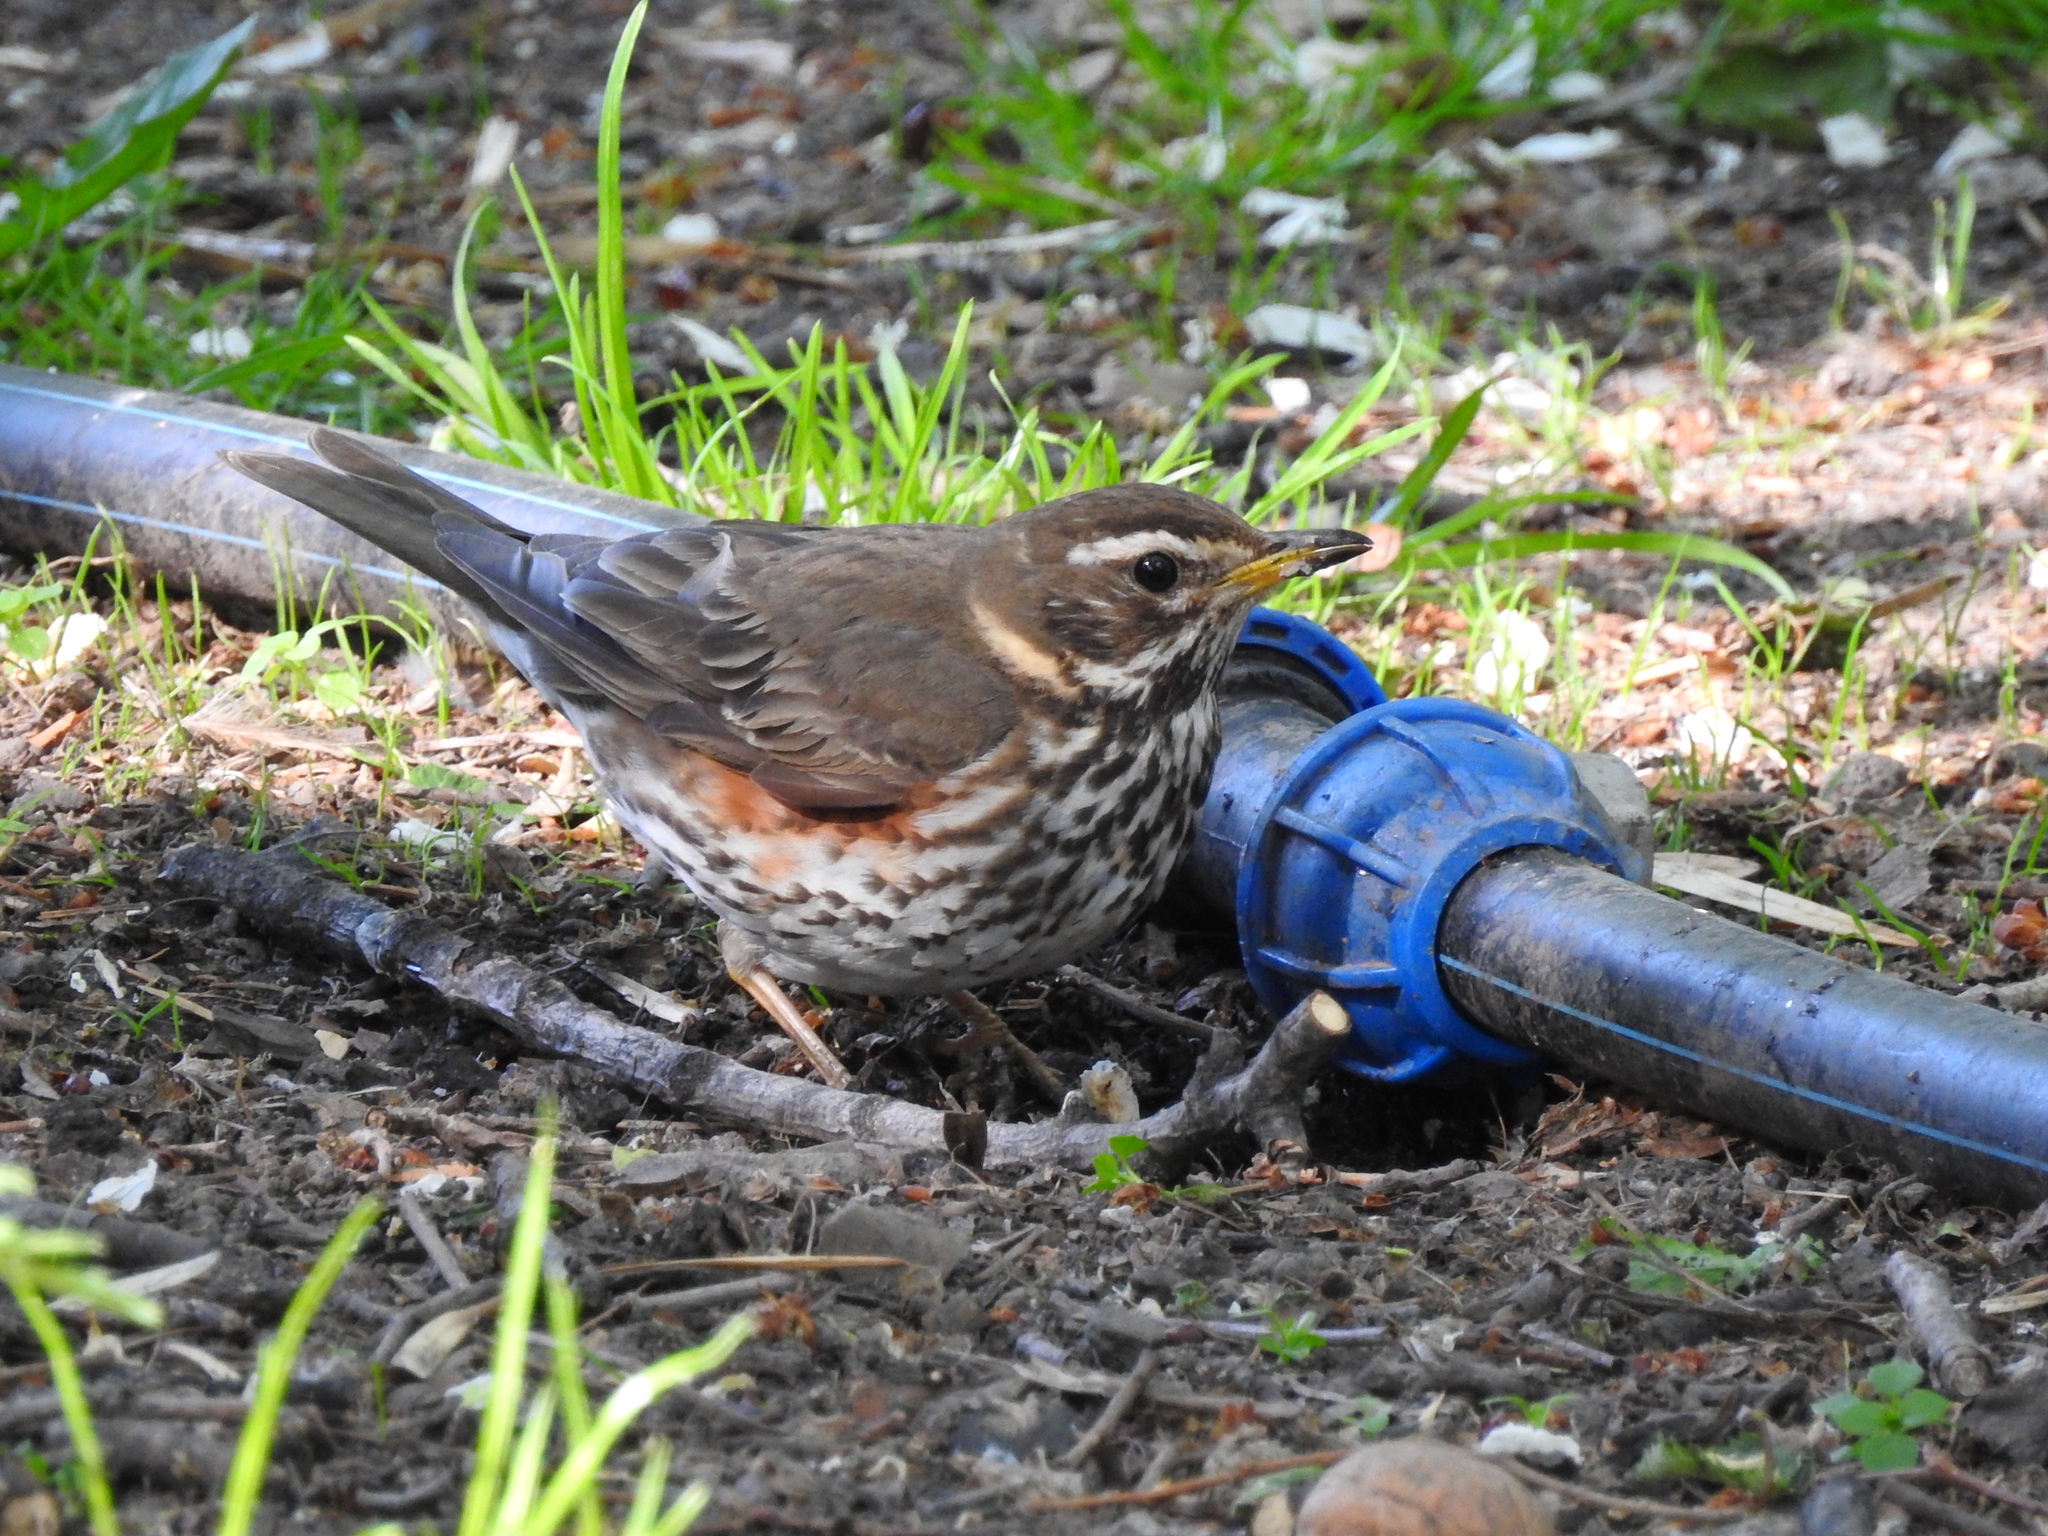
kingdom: Animalia
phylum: Chordata
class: Aves
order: Passeriformes
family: Turdidae
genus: Turdus
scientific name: Turdus iliacus
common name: Redwing
